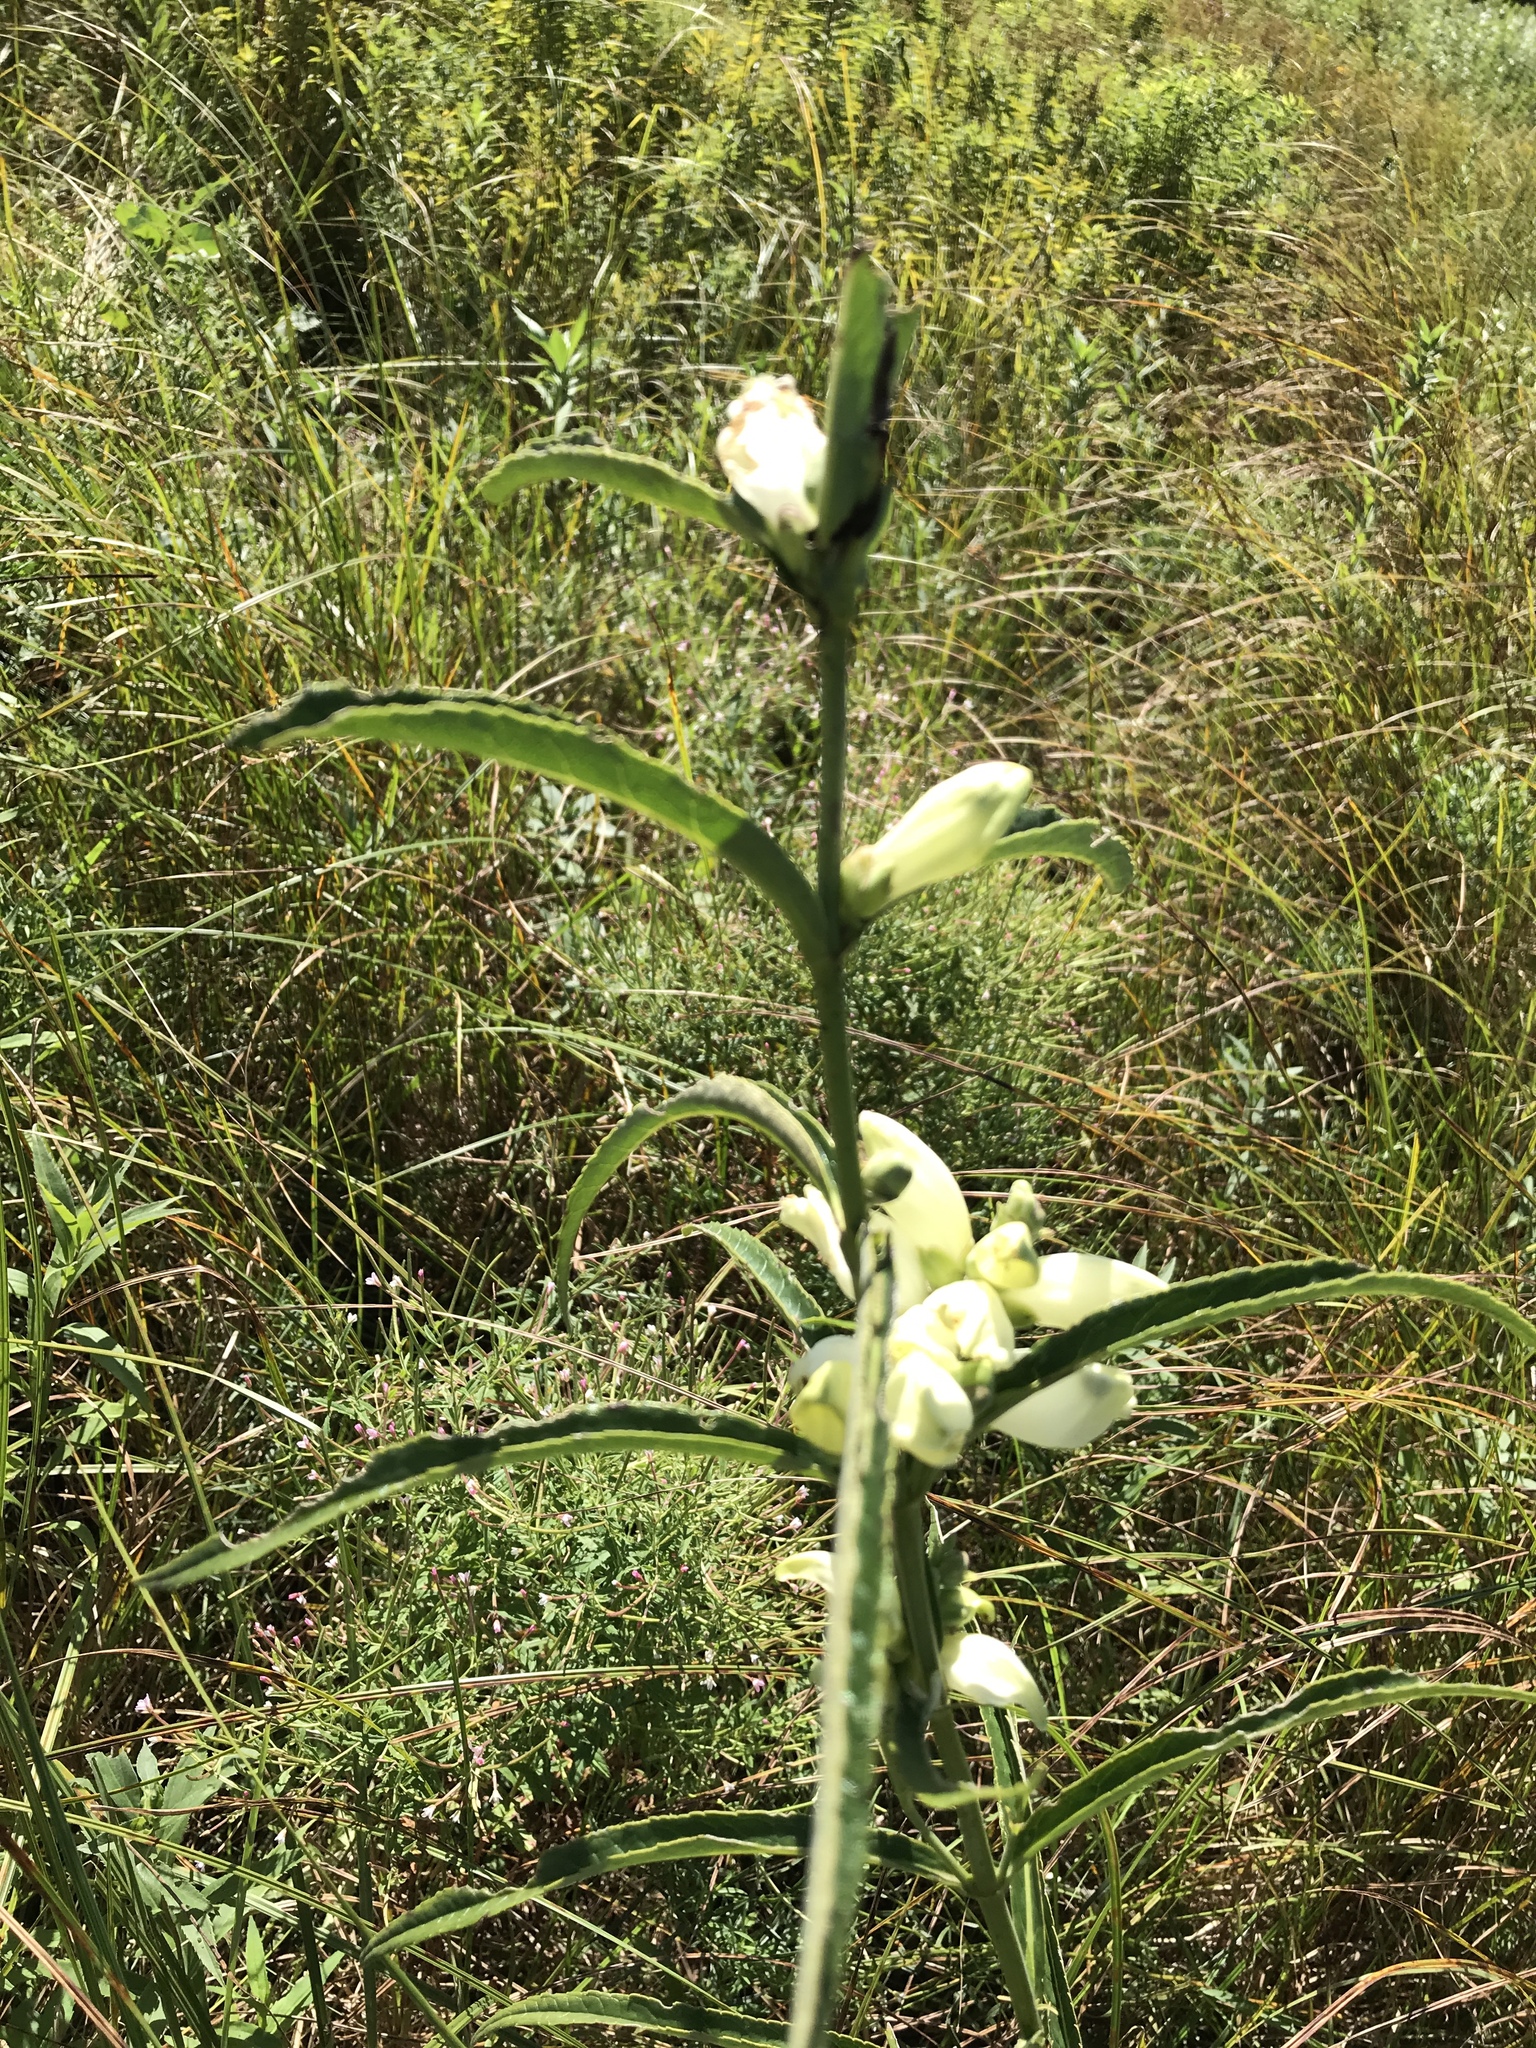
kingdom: Plantae
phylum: Tracheophyta
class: Magnoliopsida
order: Lamiales
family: Plantaginaceae
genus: Chelone
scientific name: Chelone glabra
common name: Snakehead
